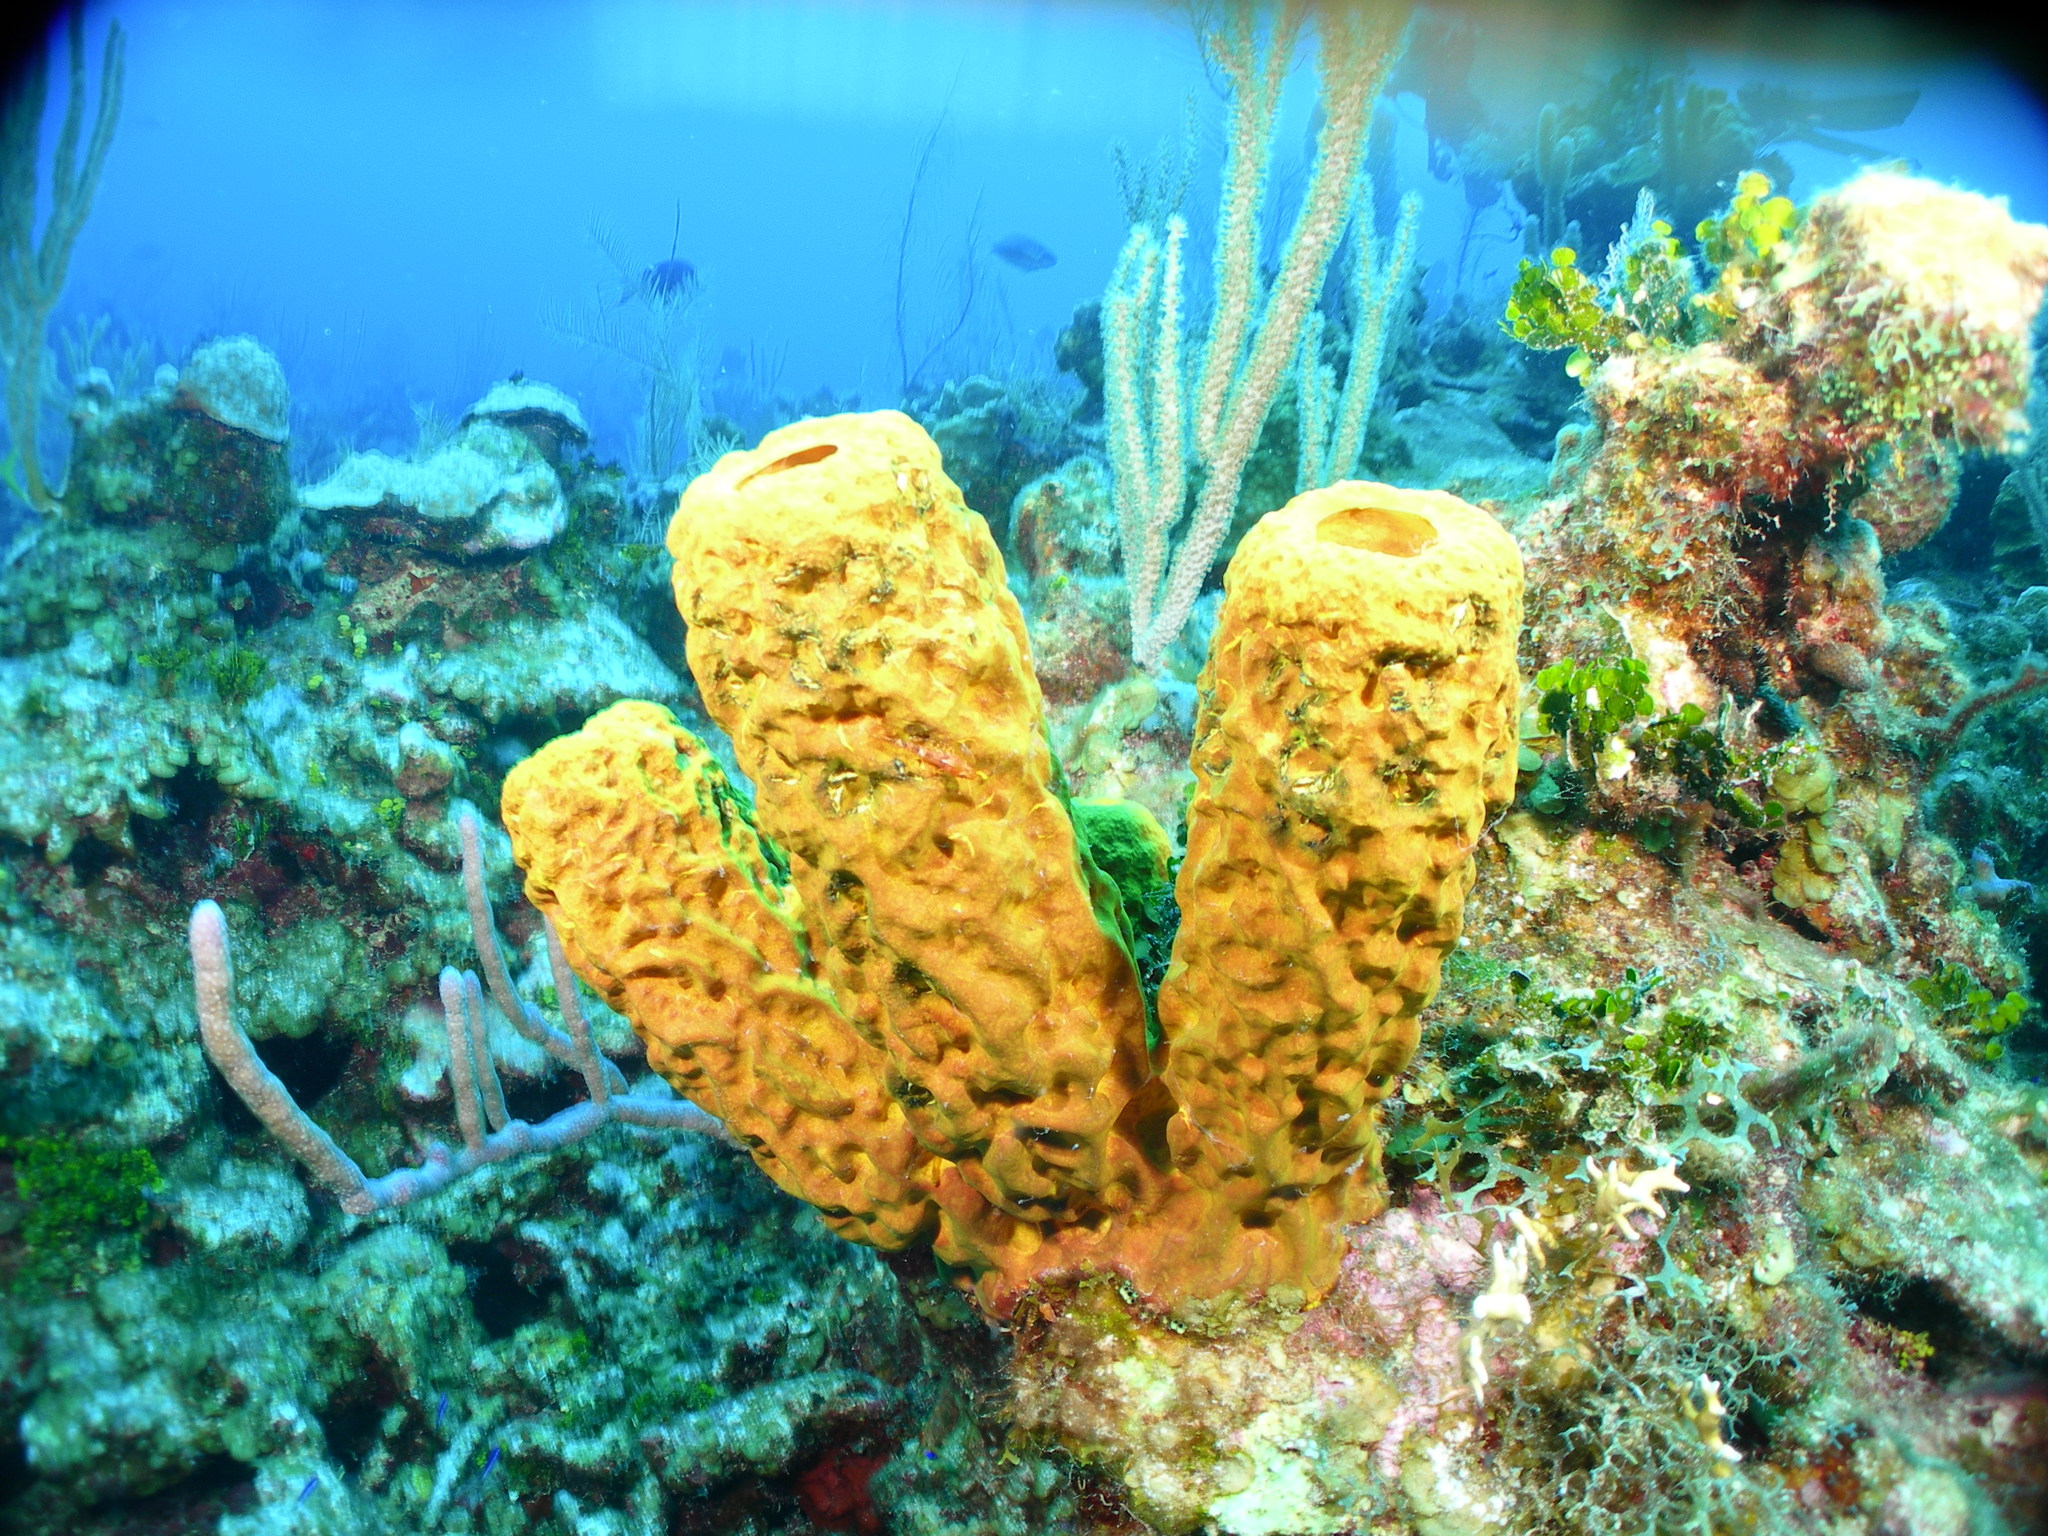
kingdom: Animalia
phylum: Porifera
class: Demospongiae
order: Verongiida
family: Aplysinidae
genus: Aplysina
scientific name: Aplysina fistularis
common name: Candle sponge
